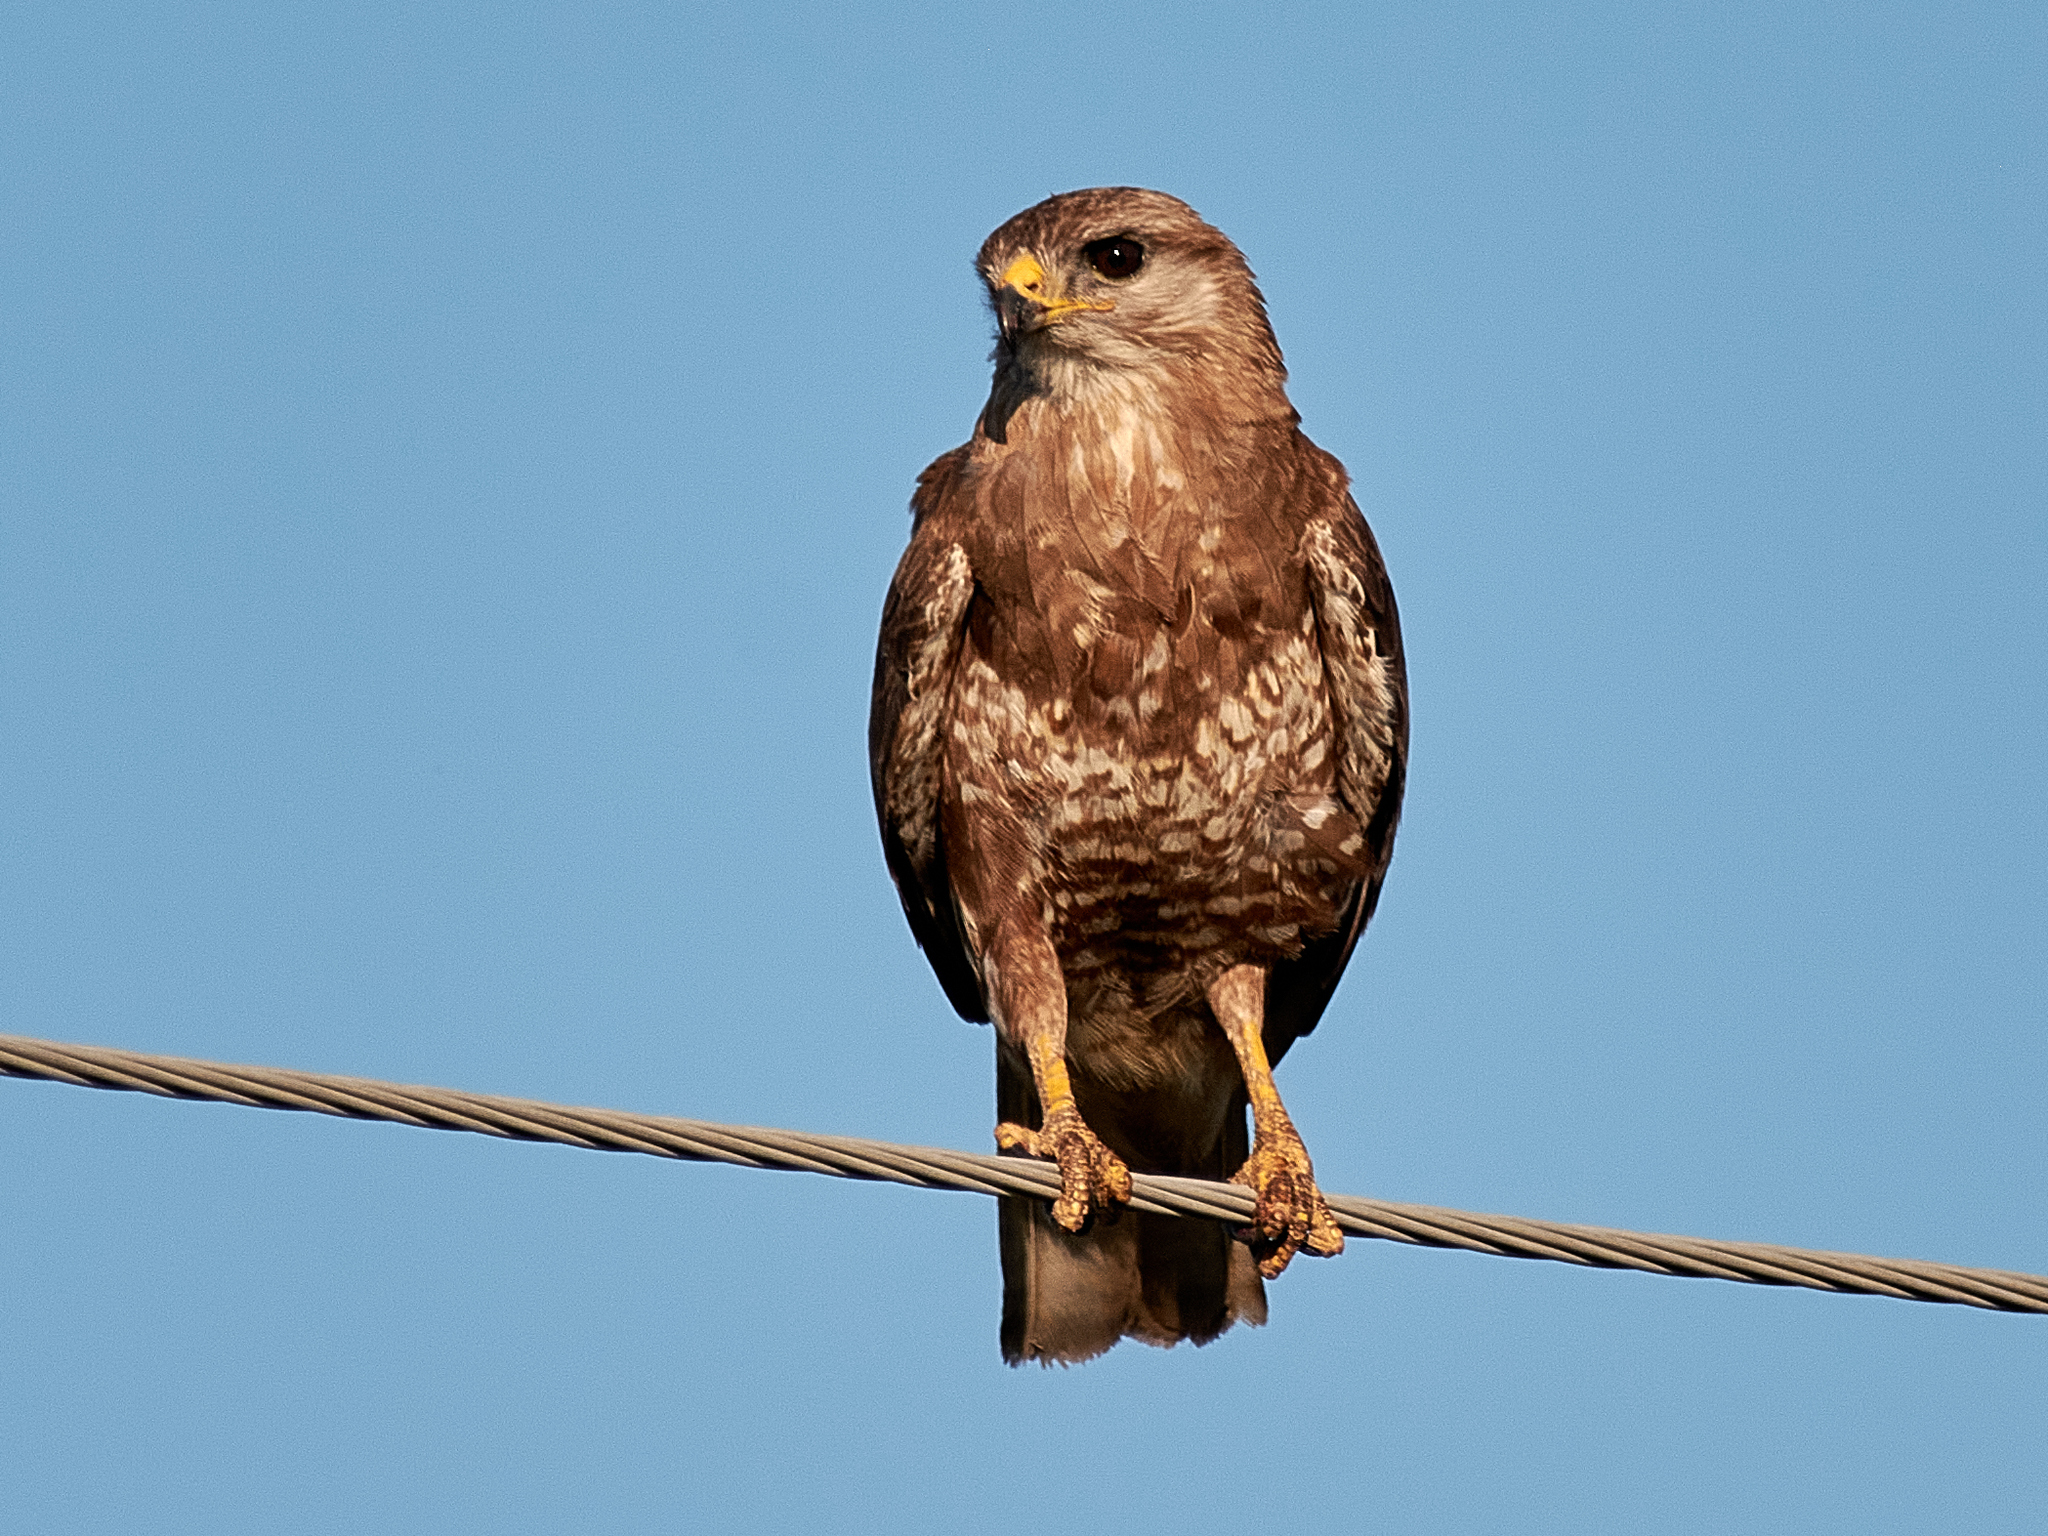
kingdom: Animalia
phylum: Chordata
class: Aves
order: Accipitriformes
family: Accipitridae
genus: Buteo
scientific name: Buteo buteo
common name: Common buzzard
